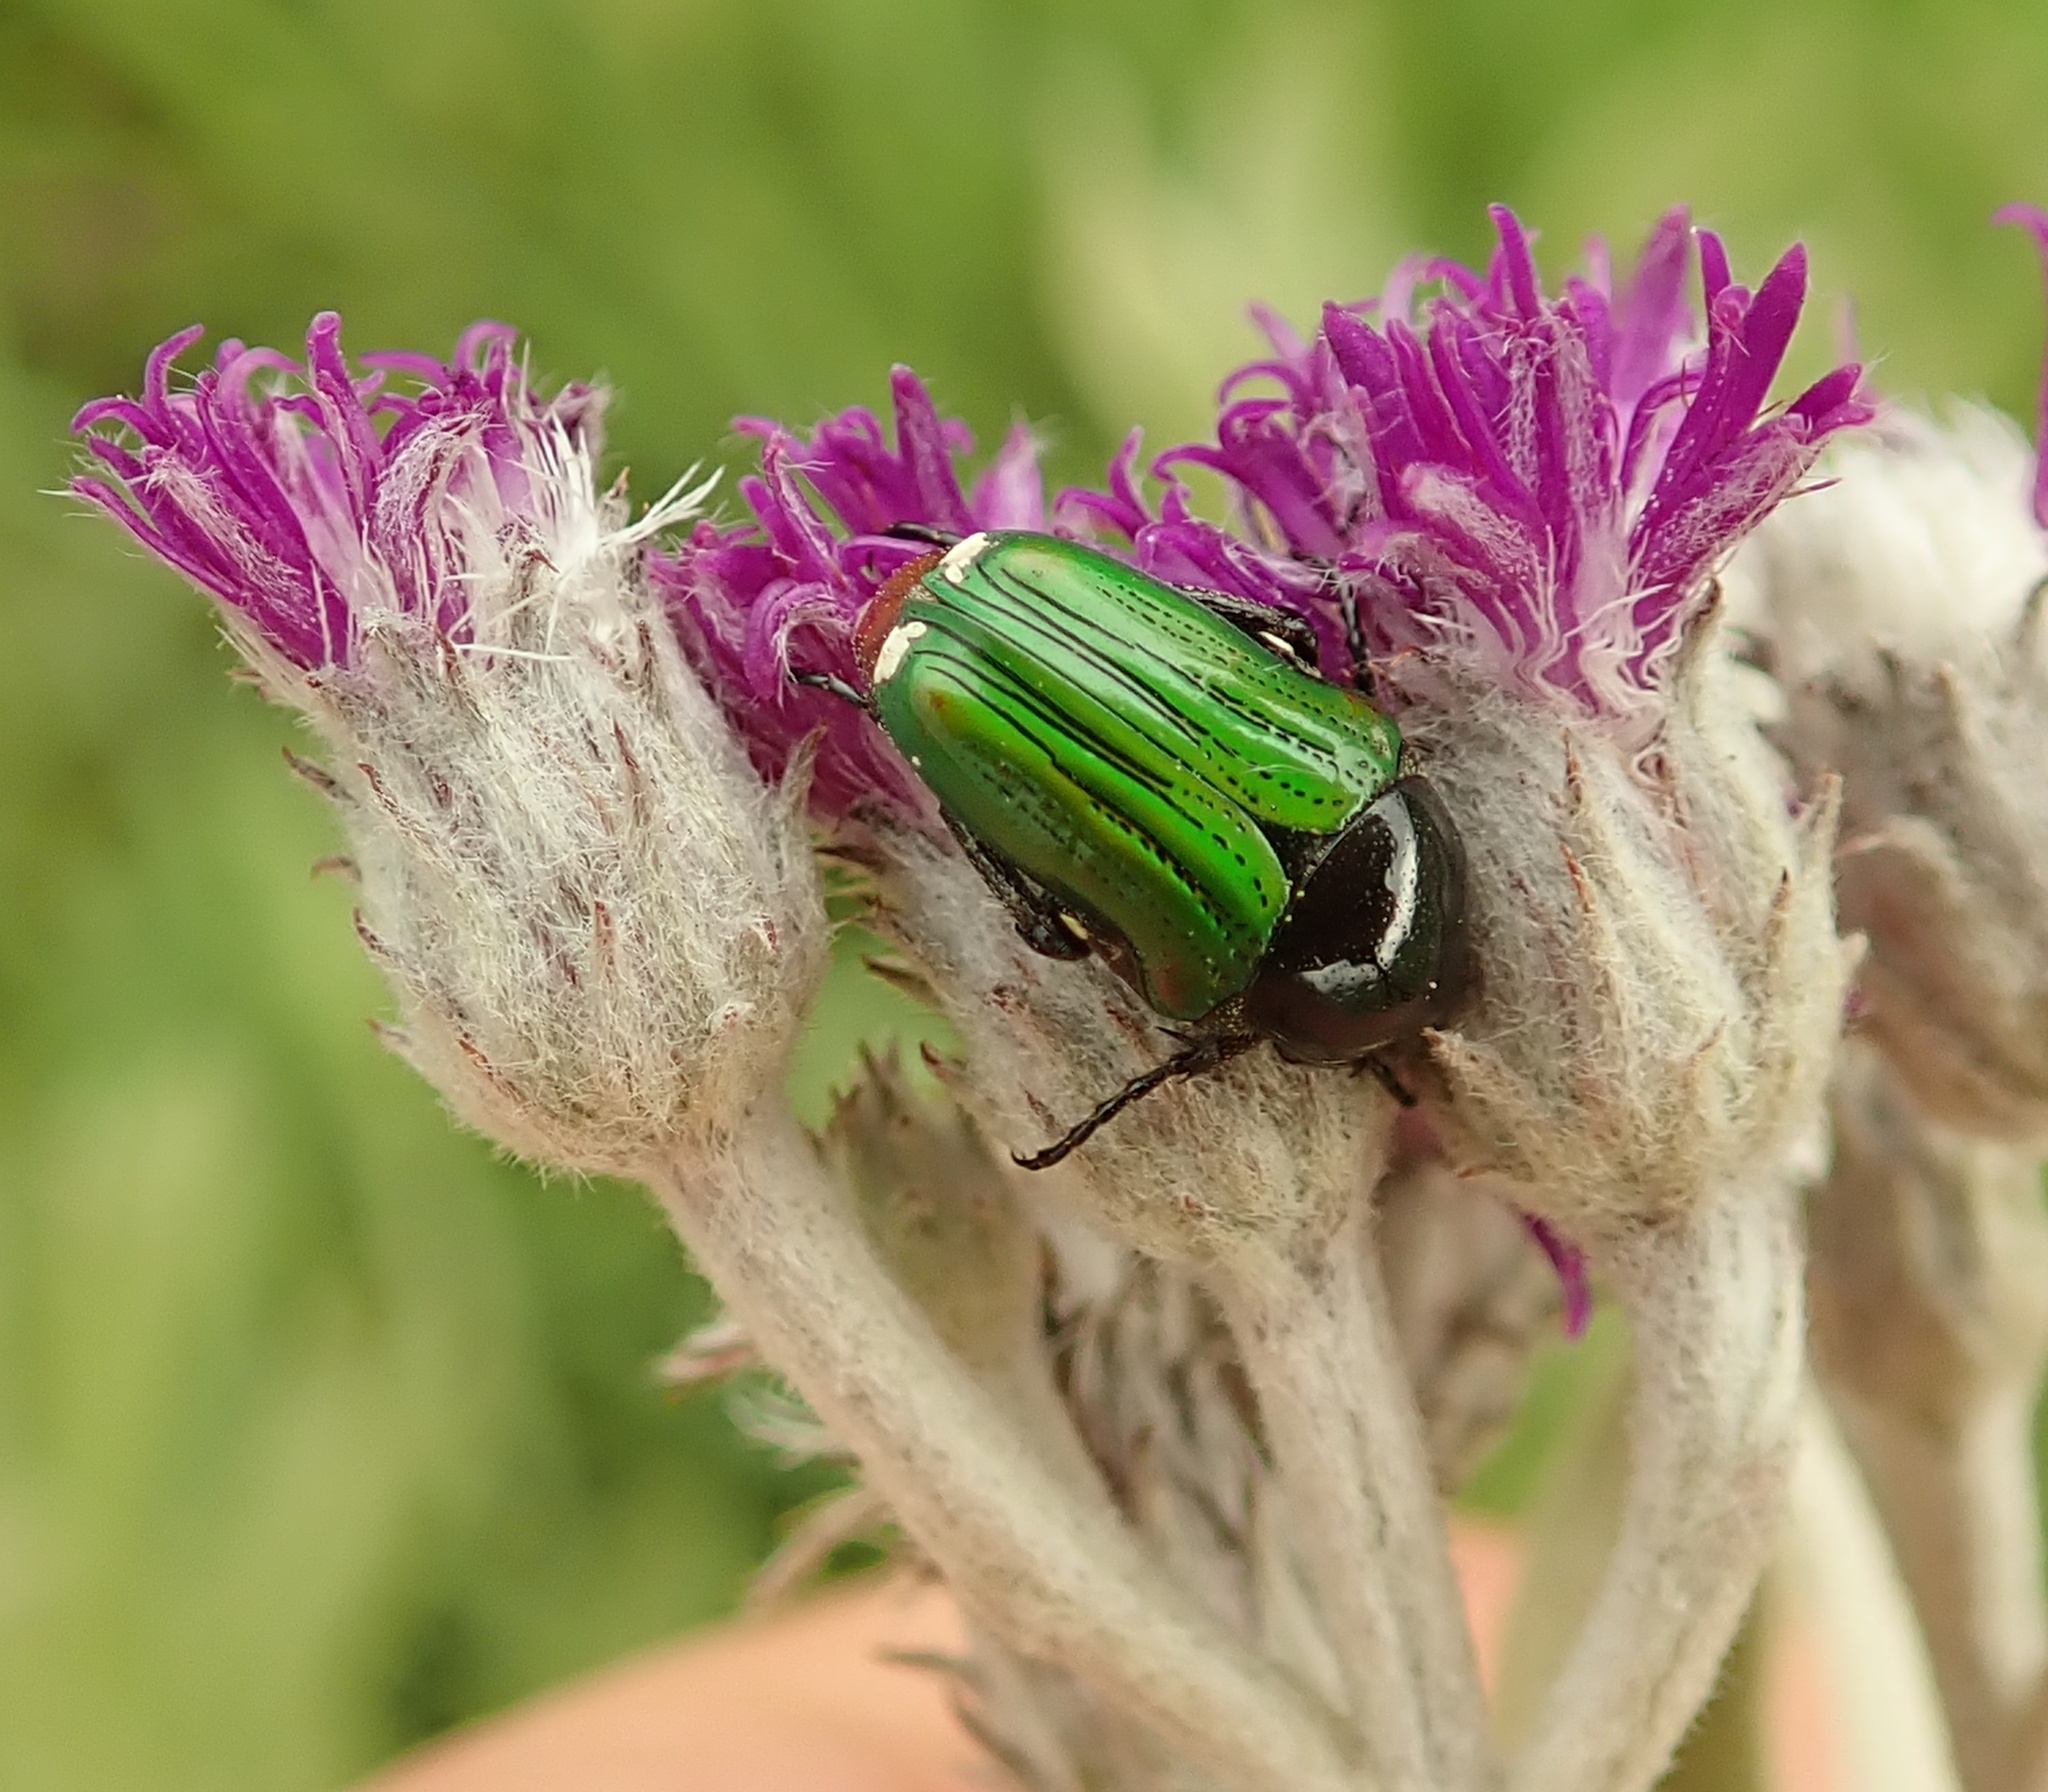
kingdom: Plantae
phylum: Tracheophyta
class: Magnoliopsida
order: Asterales
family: Asteraceae
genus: Hilliardiella
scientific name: Hilliardiella aristata
